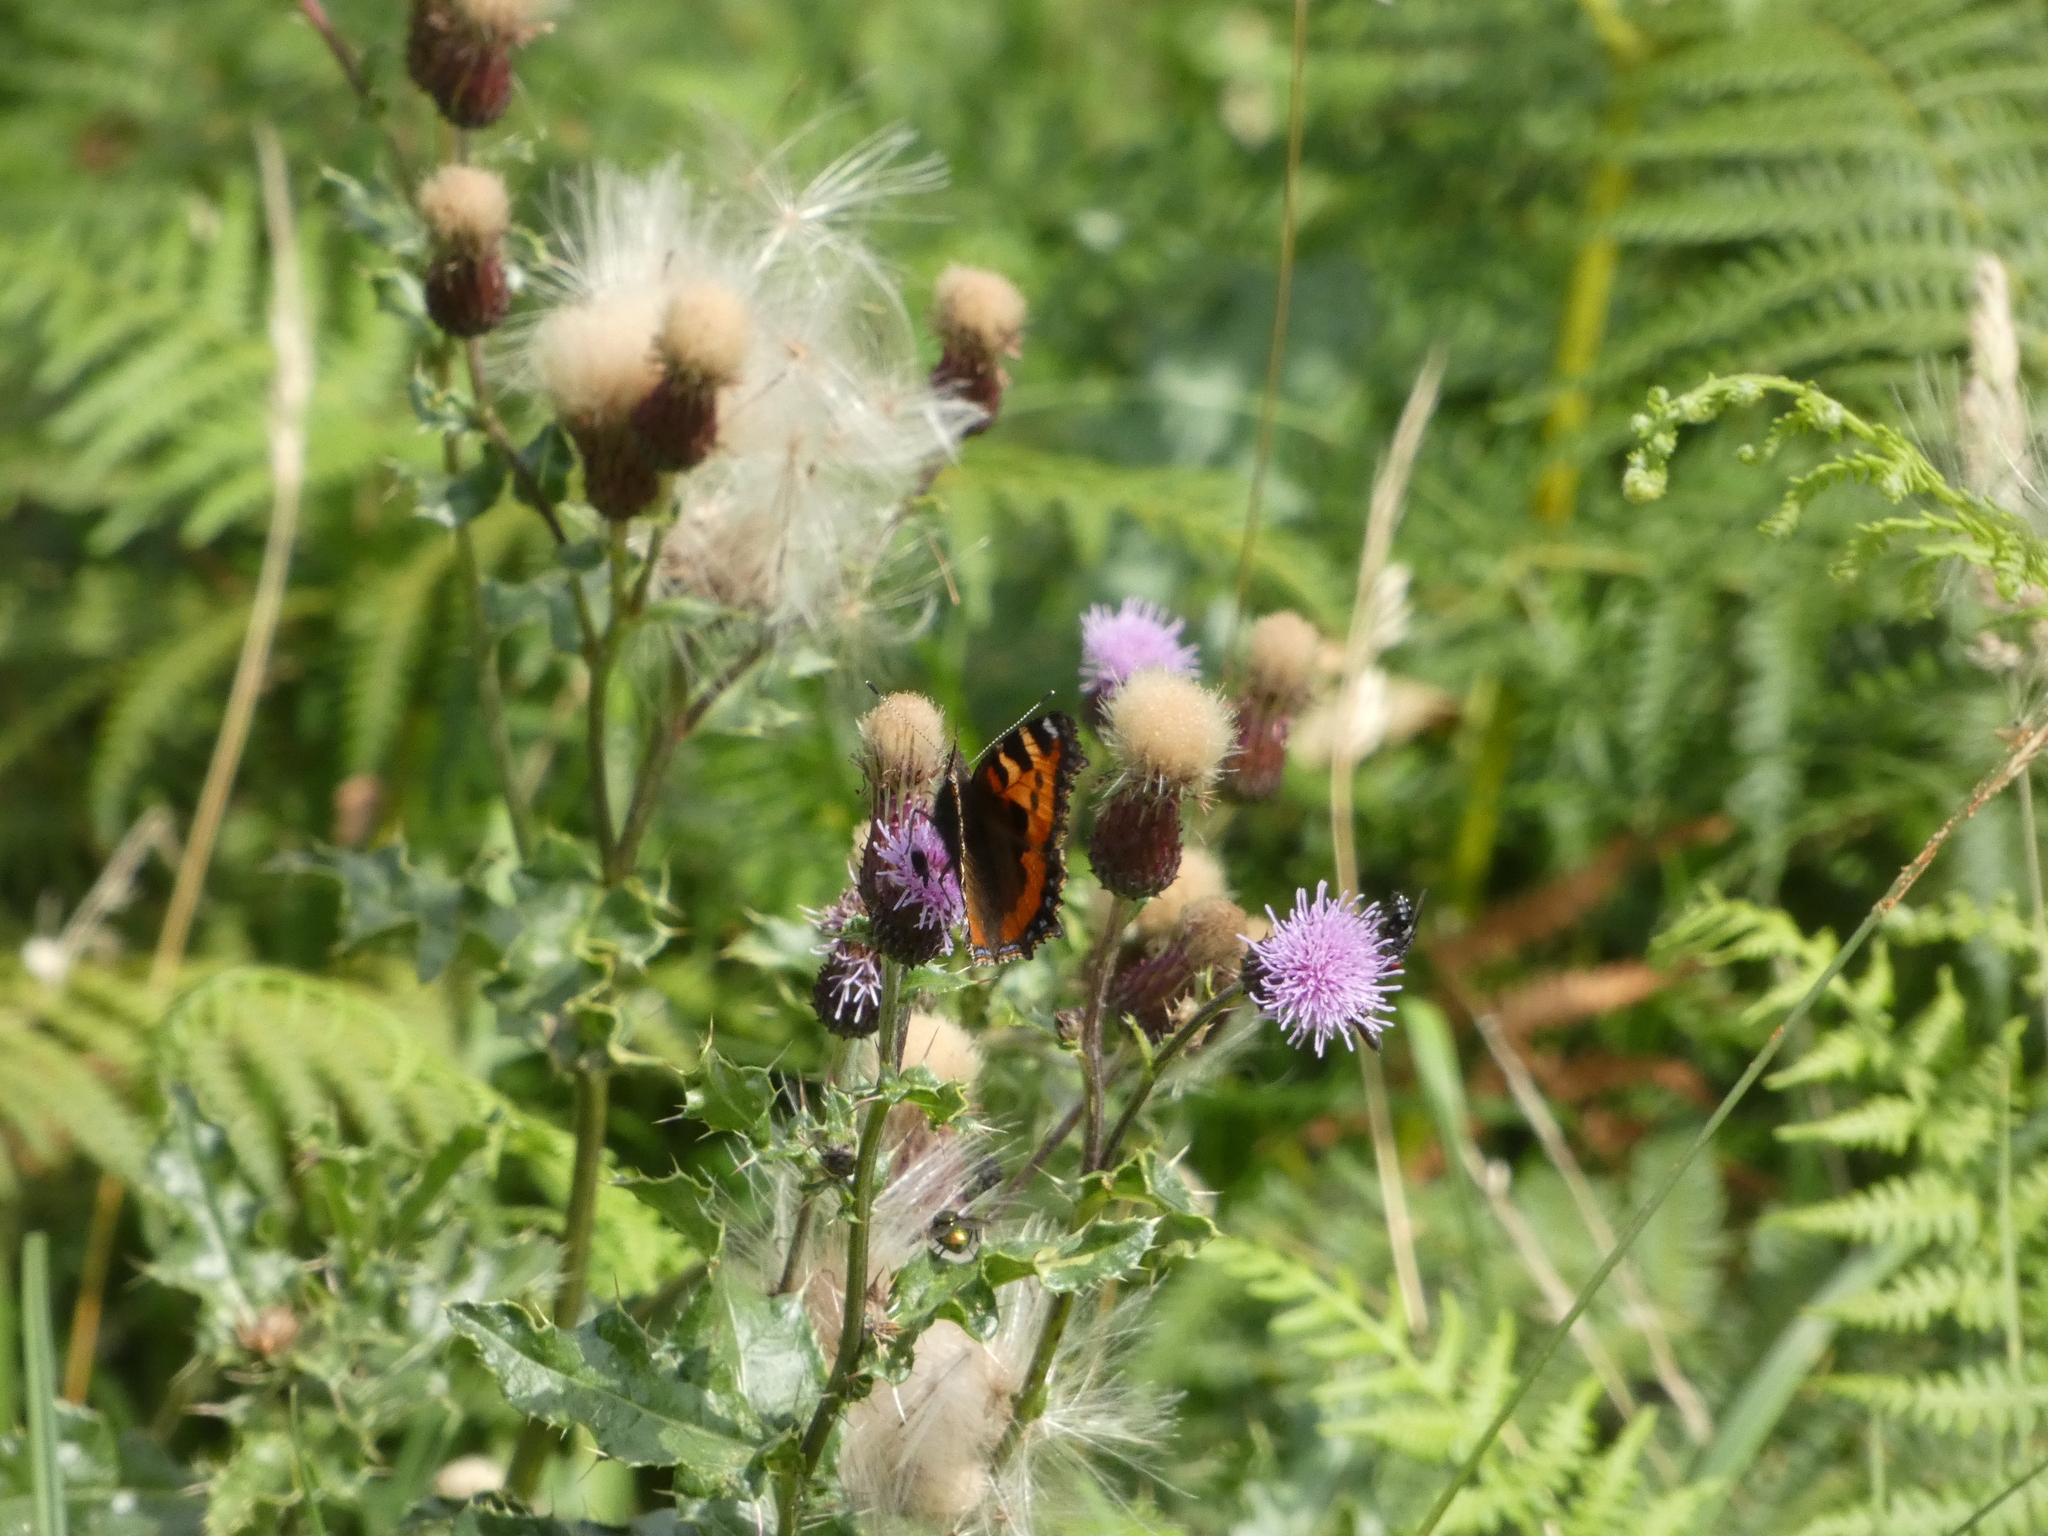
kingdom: Animalia
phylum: Arthropoda
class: Insecta
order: Lepidoptera
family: Nymphalidae
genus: Aglais
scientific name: Aglais urticae
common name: Small tortoiseshell
